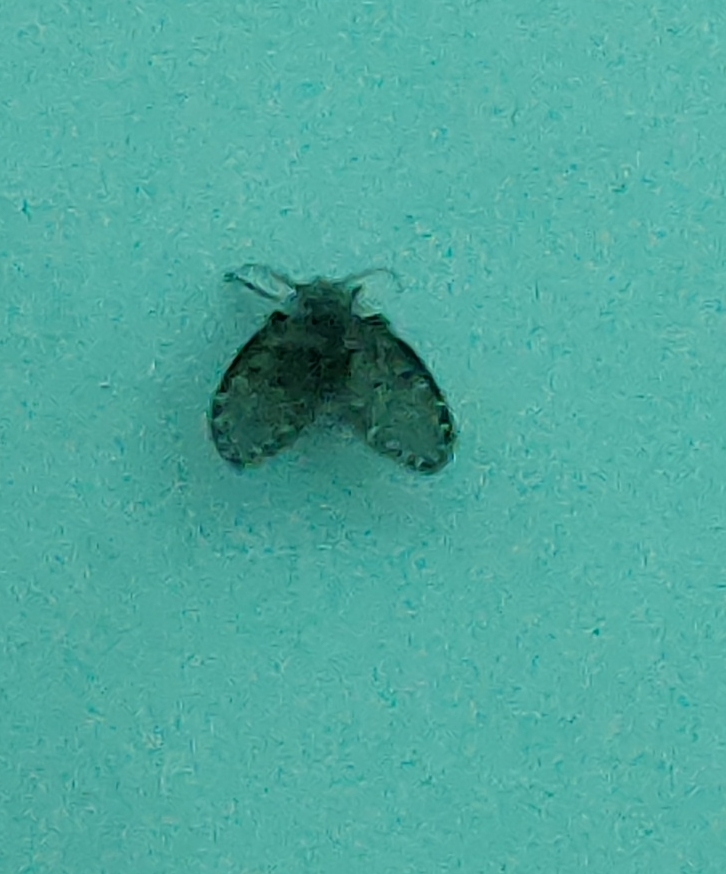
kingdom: Animalia
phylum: Arthropoda
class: Insecta
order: Diptera
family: Psychodidae
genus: Clogmia
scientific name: Clogmia albipunctatus
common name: White-spotted moth fly
